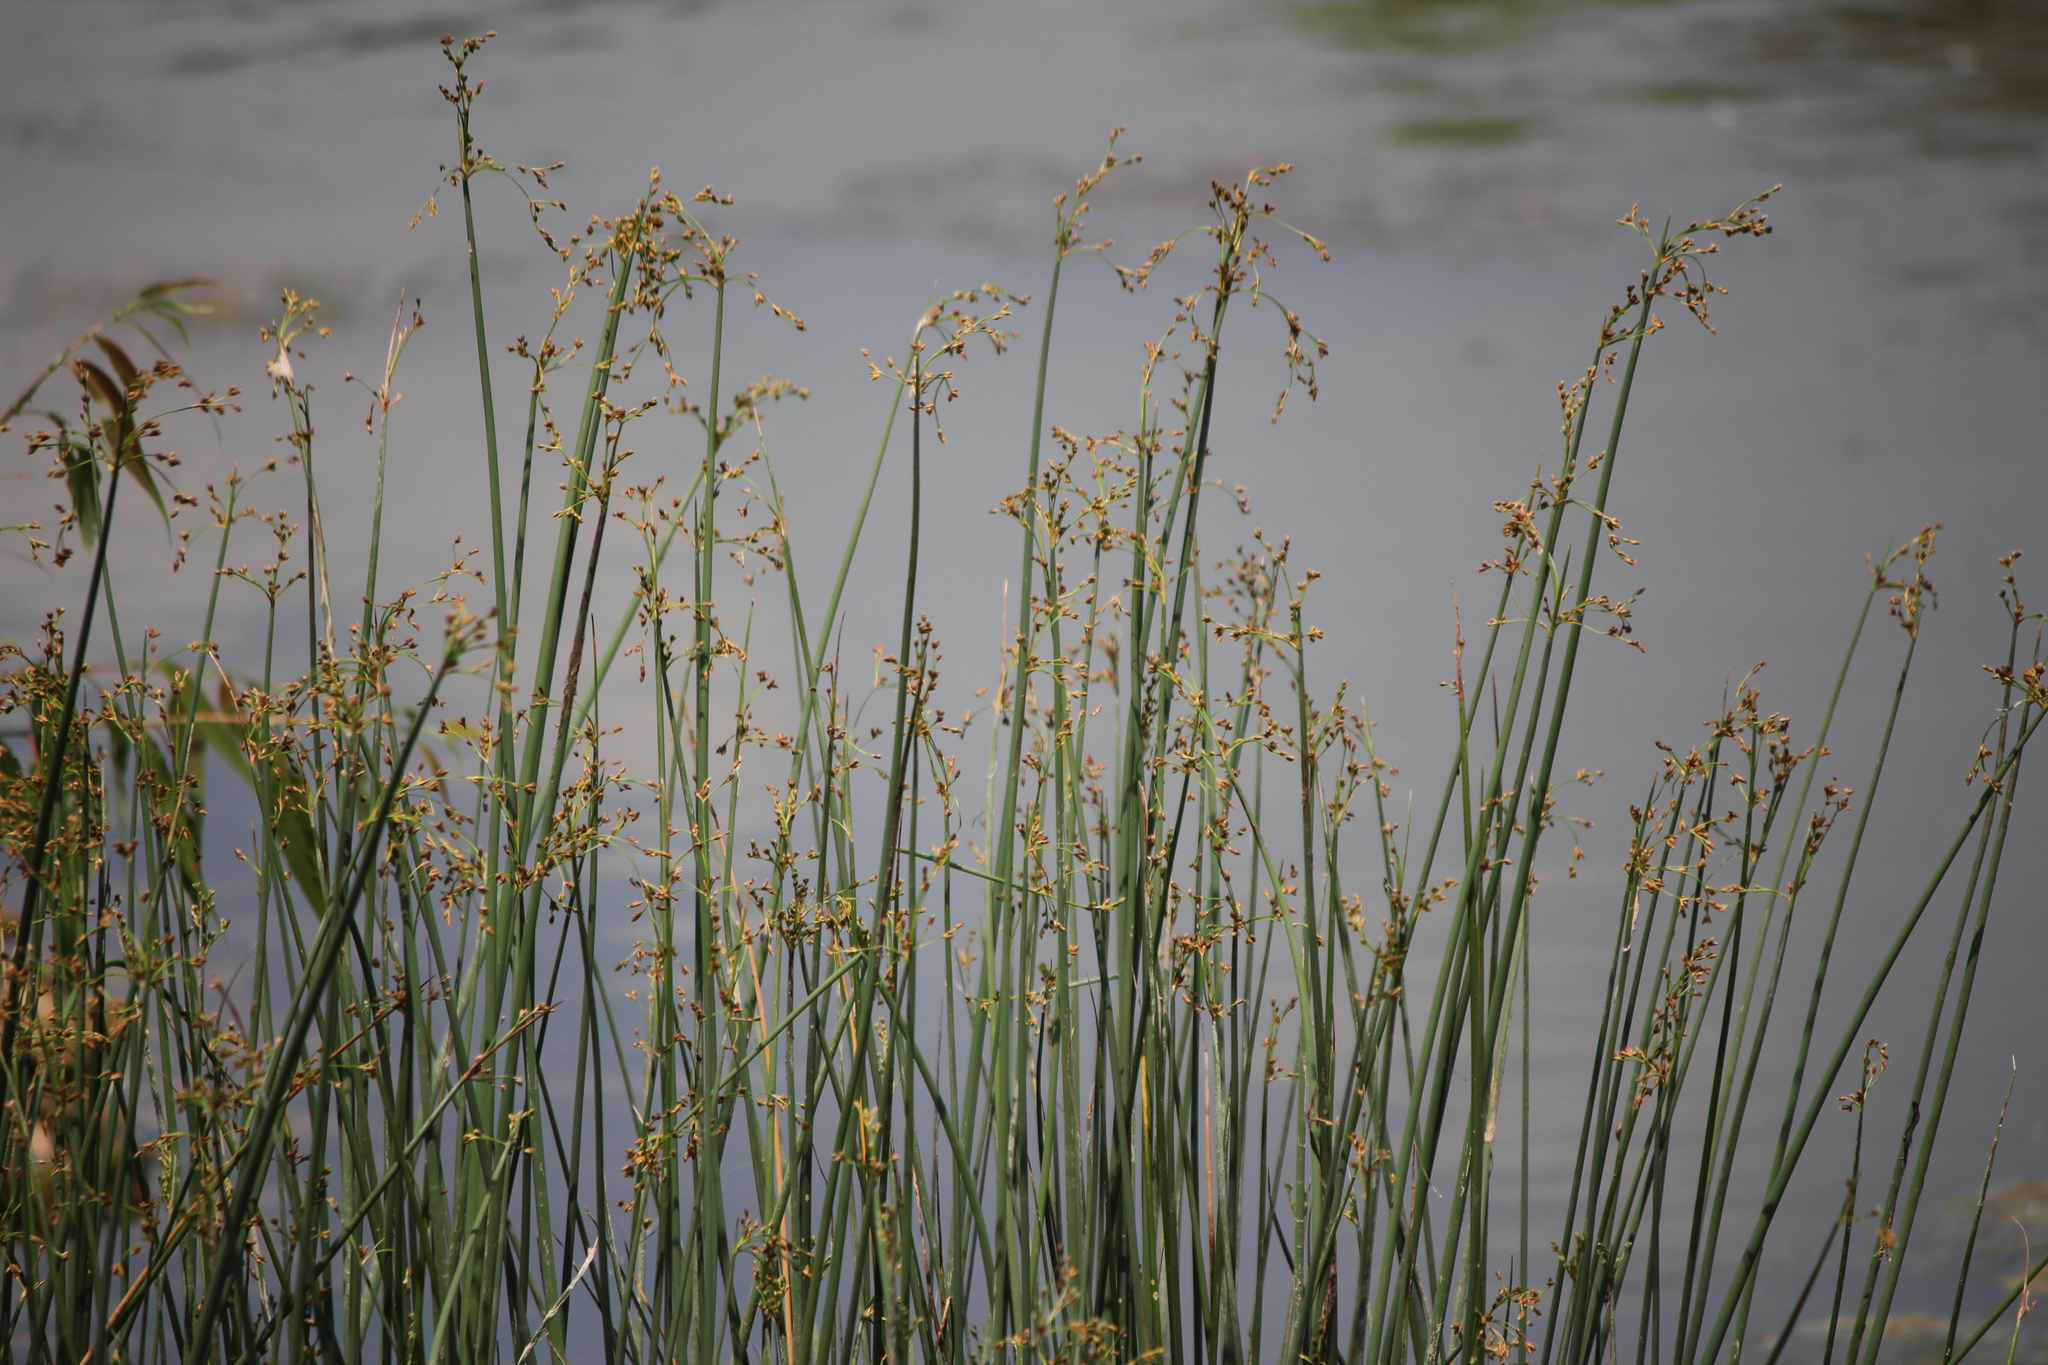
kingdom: Plantae
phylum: Tracheophyta
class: Liliopsida
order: Poales
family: Cyperaceae
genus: Schoenoplectus
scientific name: Schoenoplectus tabernaemontani
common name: Grey club-rush
